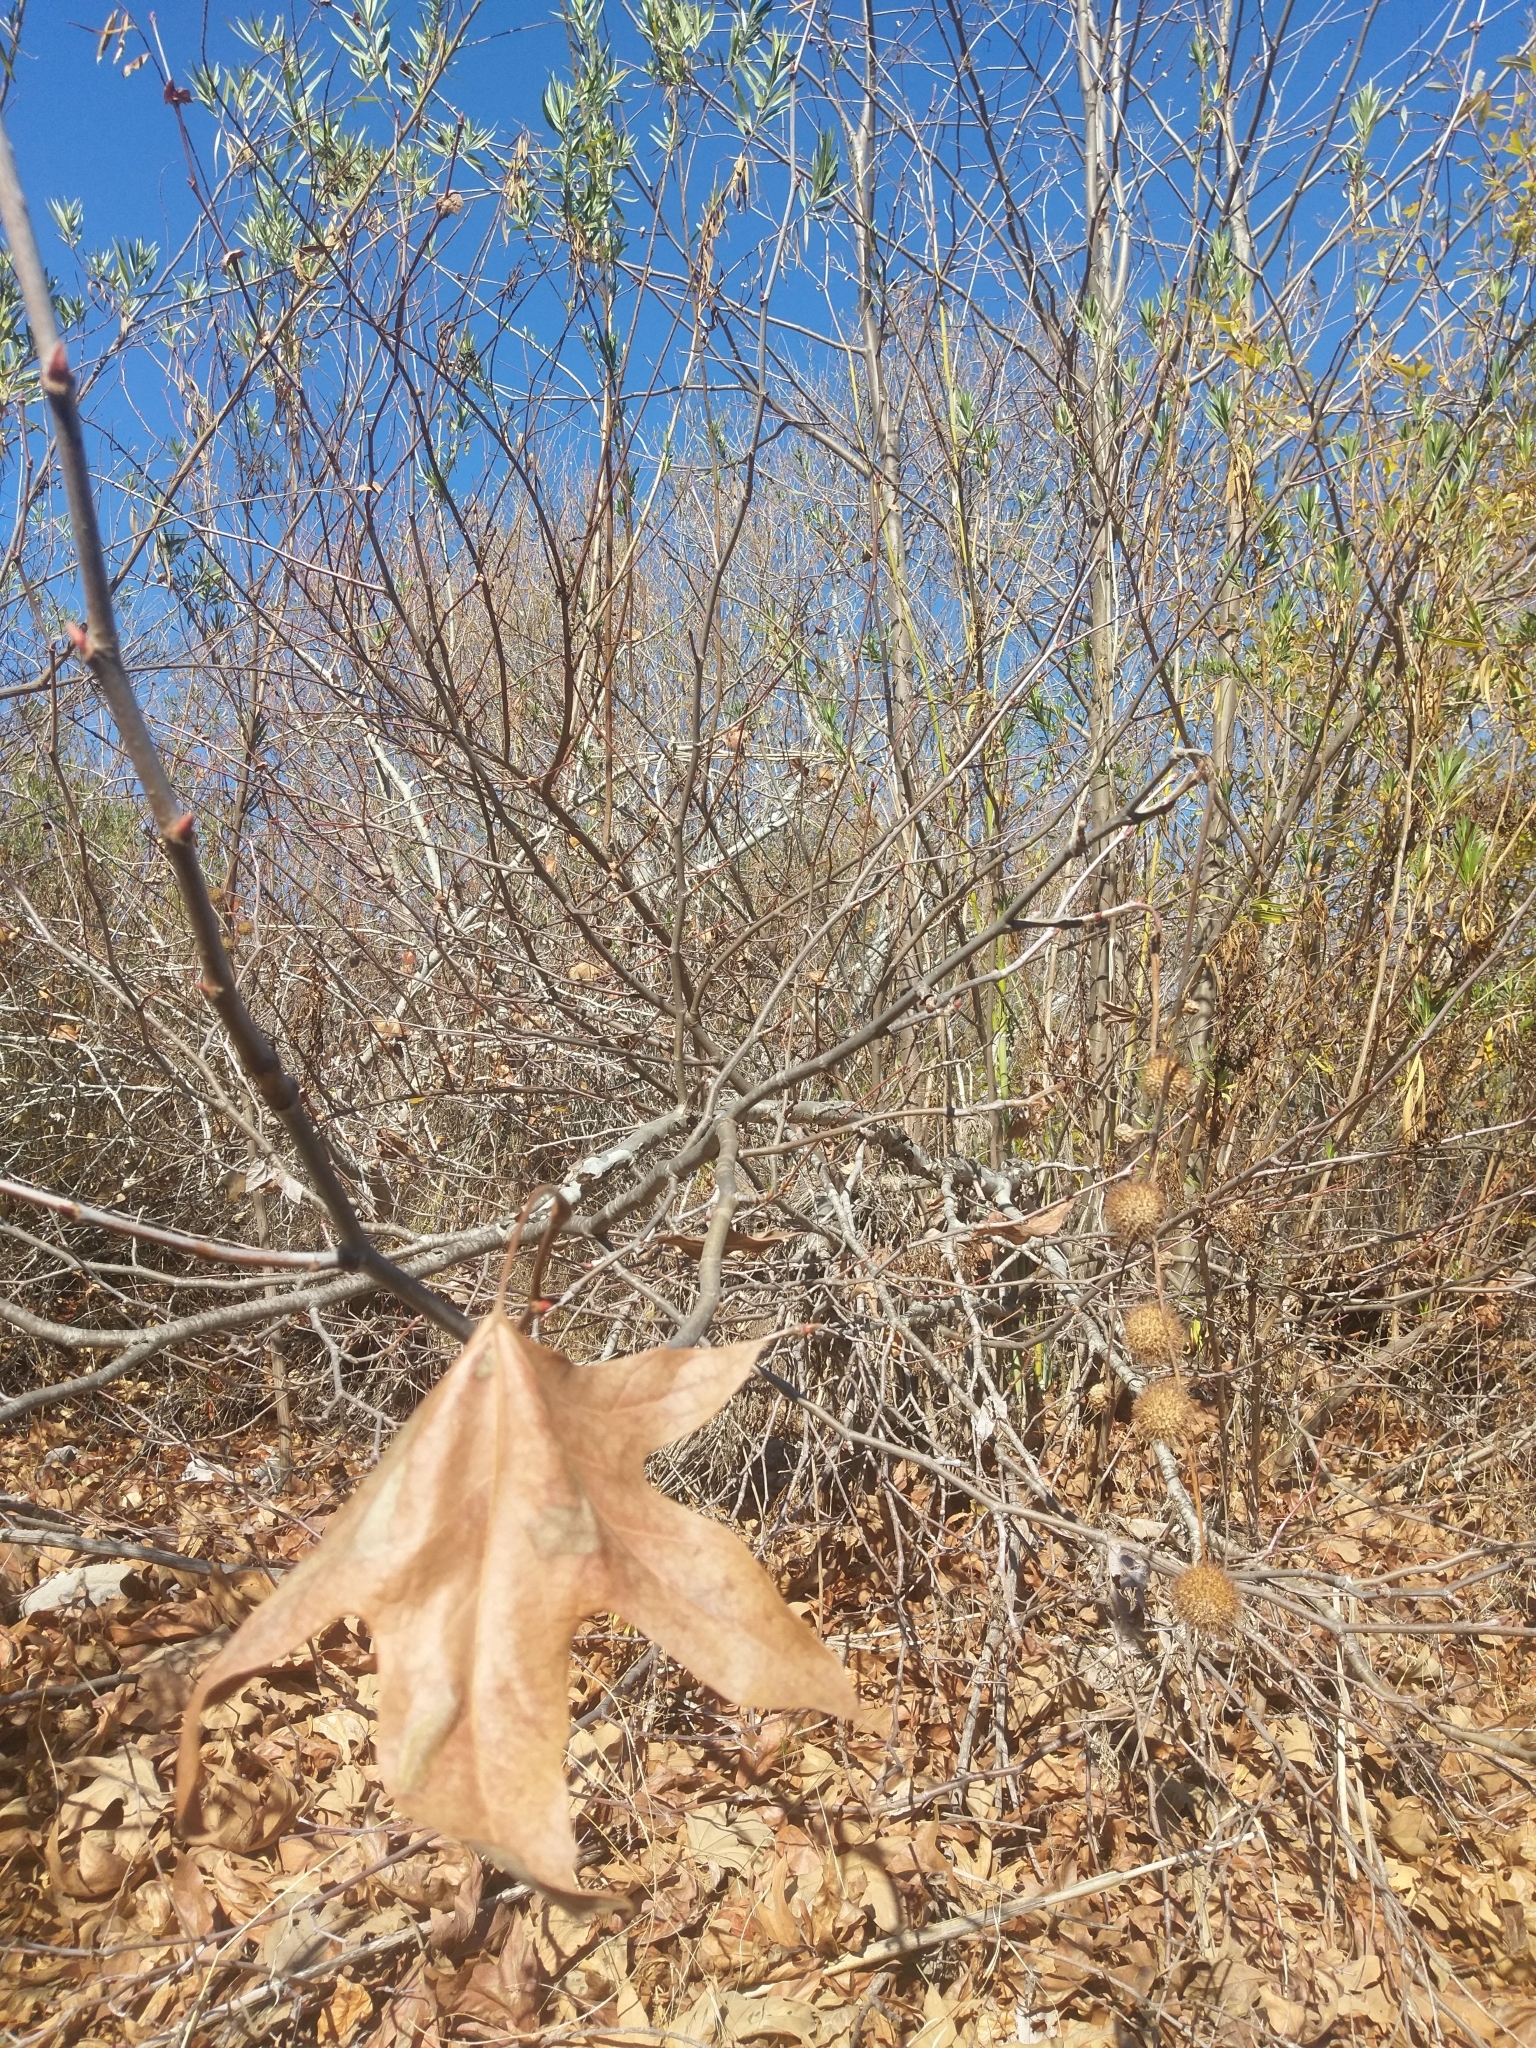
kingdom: Plantae
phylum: Tracheophyta
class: Magnoliopsida
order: Proteales
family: Platanaceae
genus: Platanus
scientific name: Platanus racemosa
